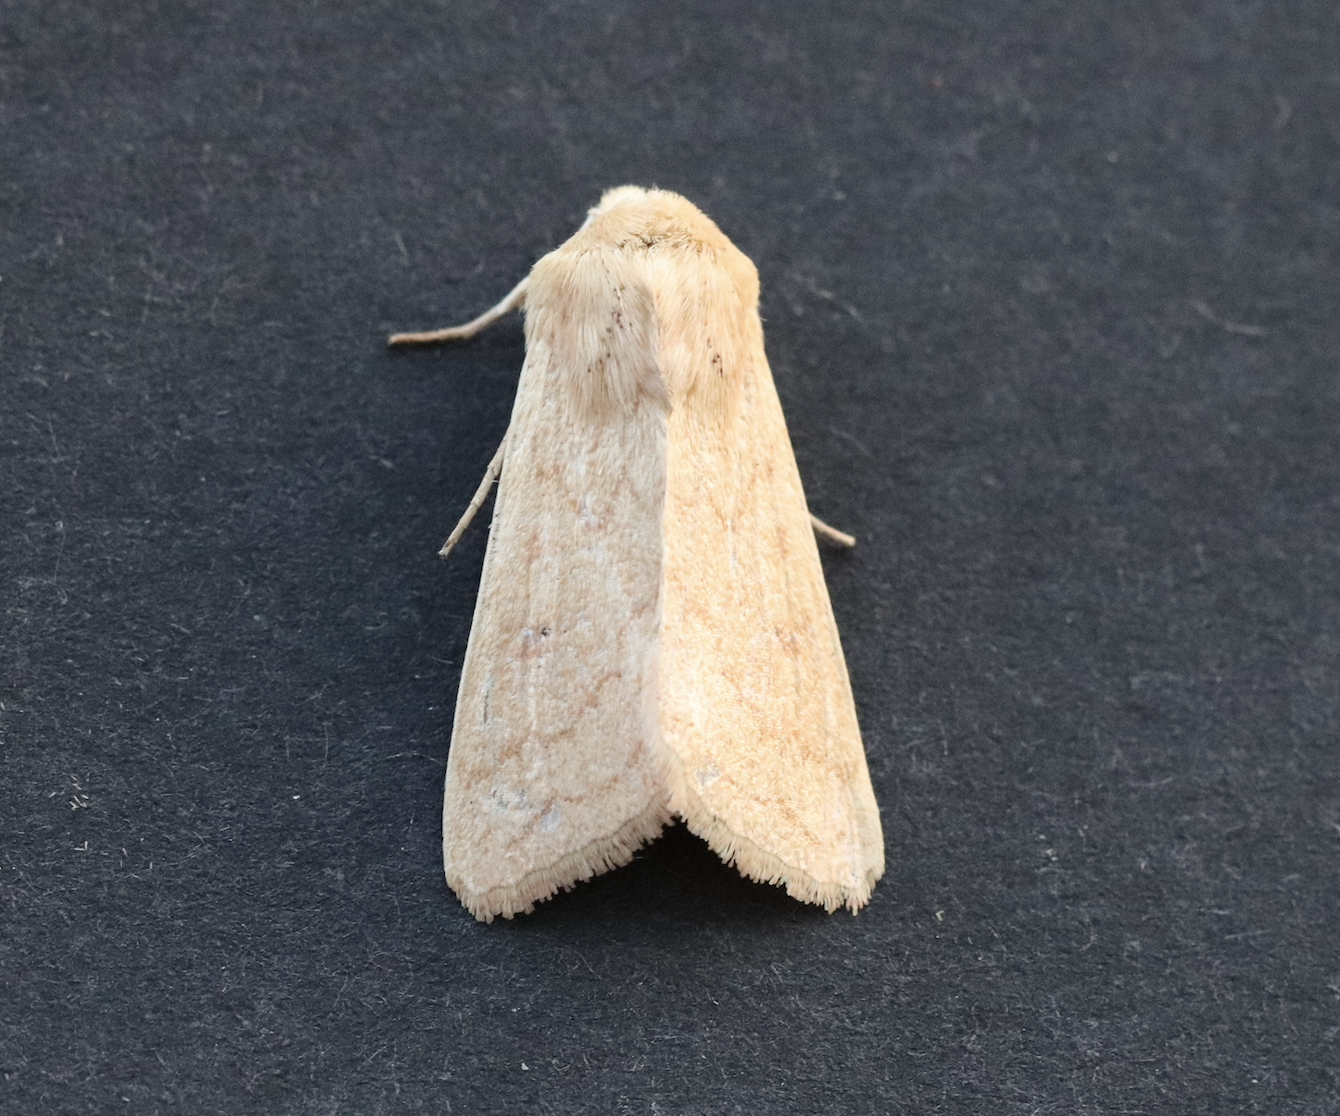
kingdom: Animalia
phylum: Arthropoda
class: Insecta
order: Lepidoptera
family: Noctuidae
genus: Mythimna
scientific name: Mythimna vitellina
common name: Delicate
